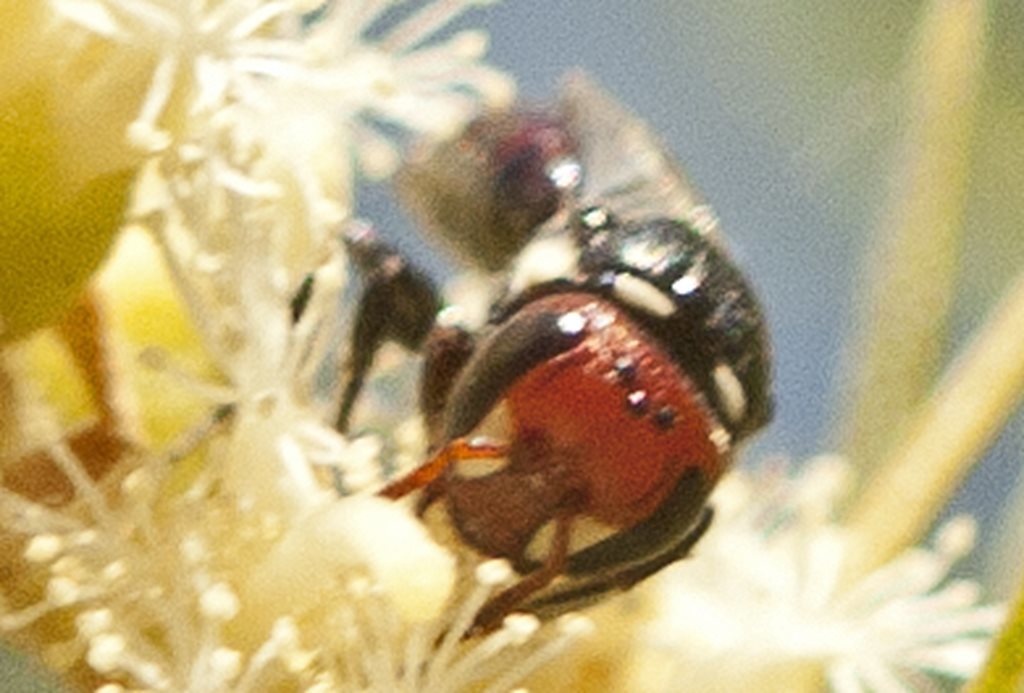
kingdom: Animalia
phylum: Arthropoda
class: Insecta
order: Hymenoptera
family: Colletidae
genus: Hylaeus
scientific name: Hylaeus ruficeps
